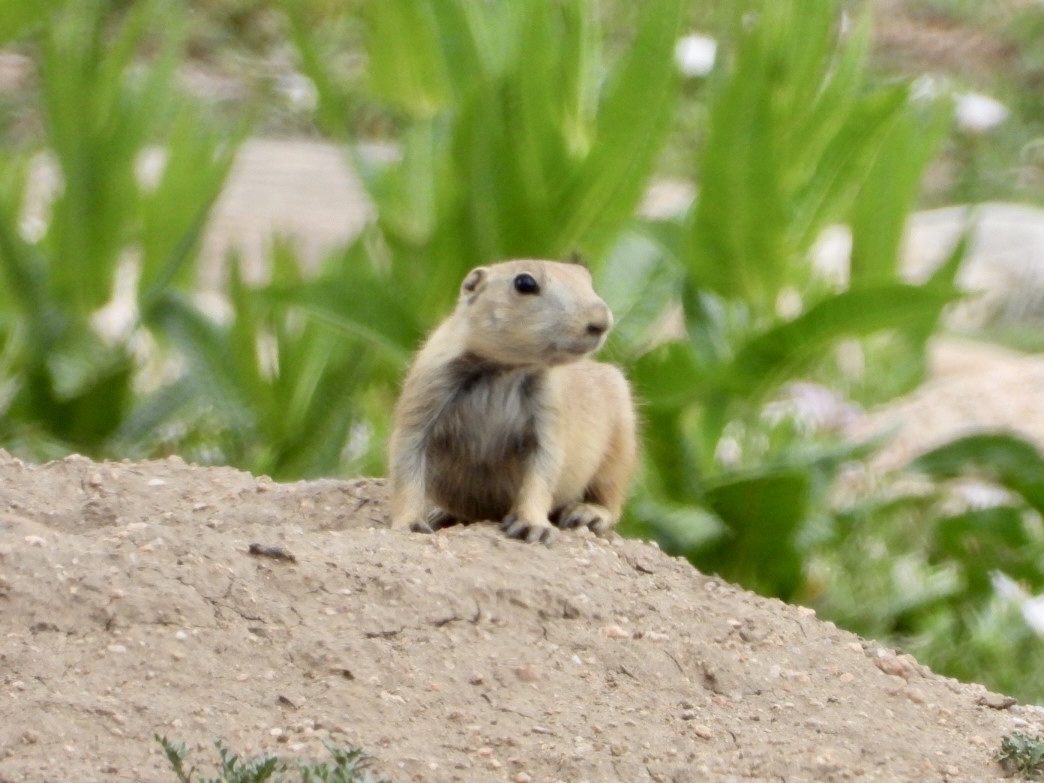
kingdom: Animalia
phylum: Chordata
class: Mammalia
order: Rodentia
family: Sciuridae
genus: Cynomys
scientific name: Cynomys ludovicianus
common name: Black-tailed prairie dog
